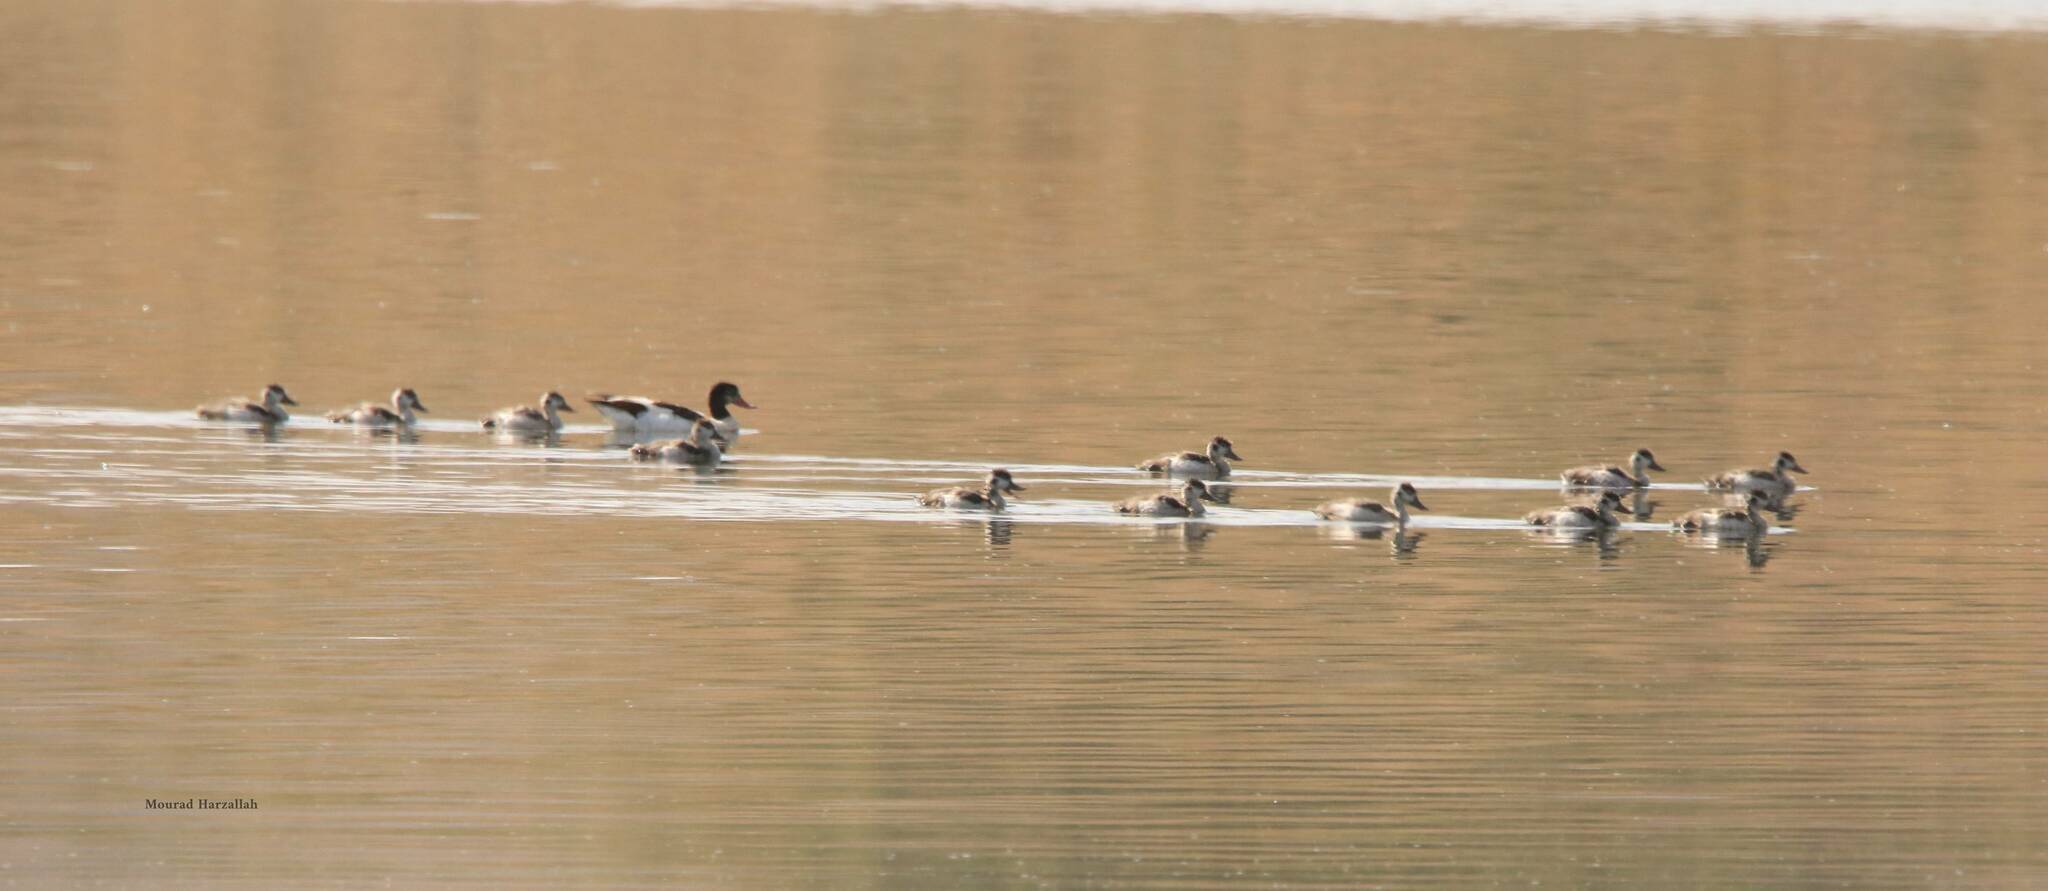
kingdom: Animalia
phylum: Chordata
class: Aves
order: Anseriformes
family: Anatidae
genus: Tadorna
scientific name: Tadorna tadorna
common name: Common shelduck
